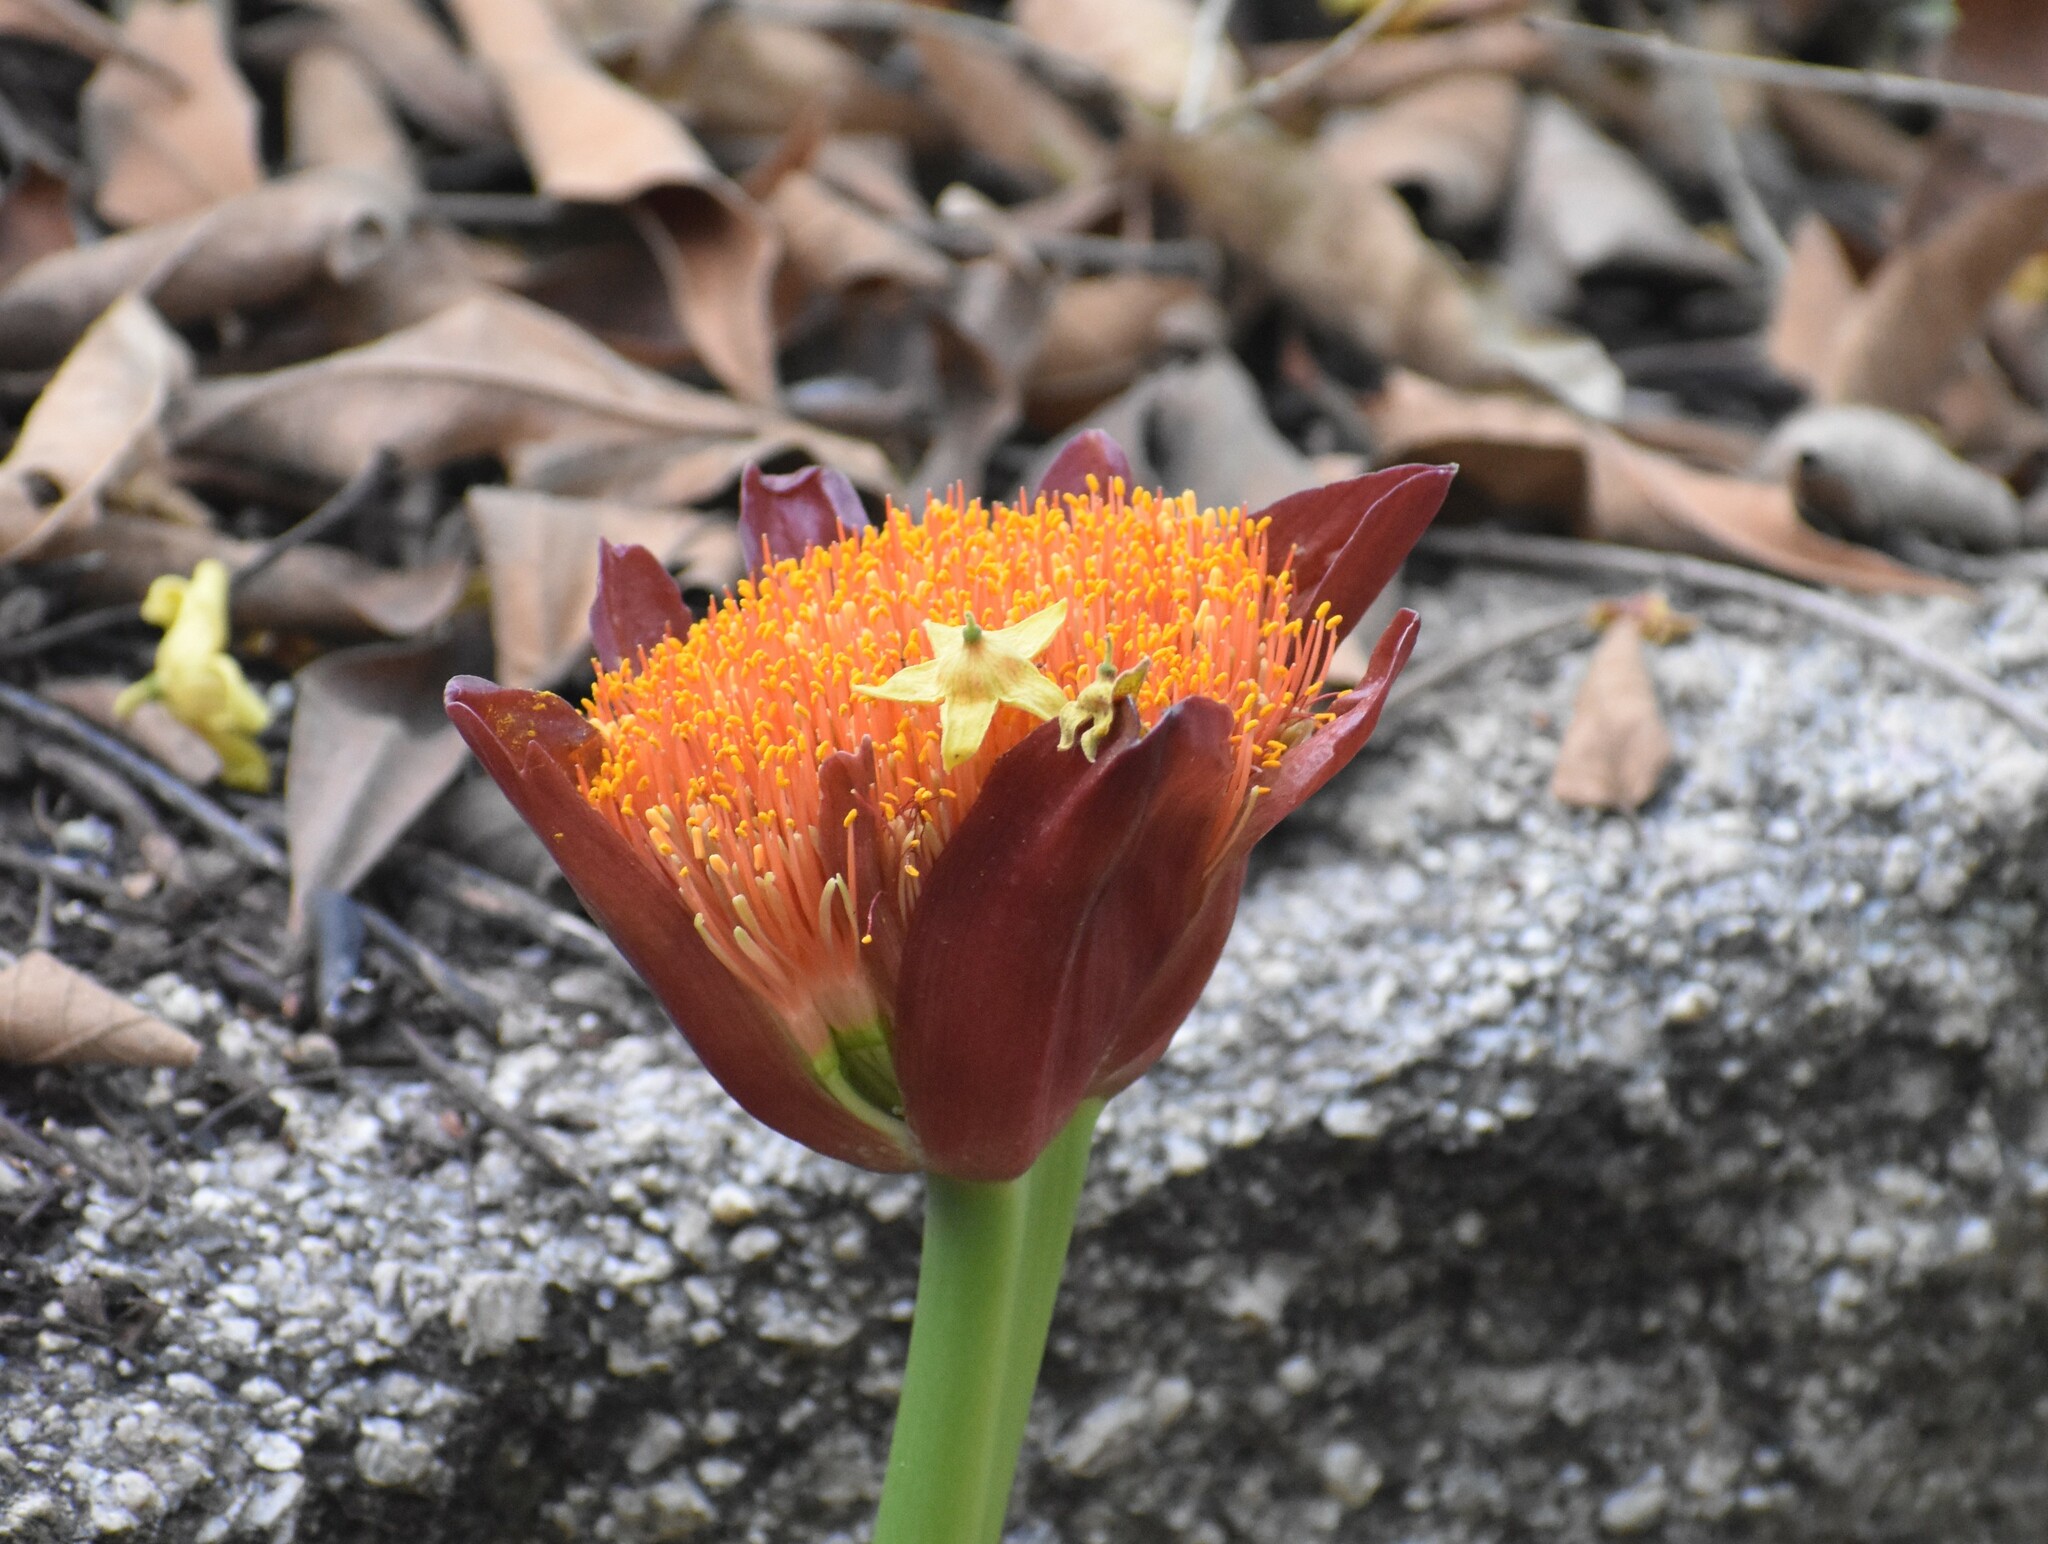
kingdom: Plantae
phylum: Tracheophyta
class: Liliopsida
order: Asparagales
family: Amaryllidaceae
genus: Scadoxus
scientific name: Scadoxus puniceus
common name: Royal-paintbrush
